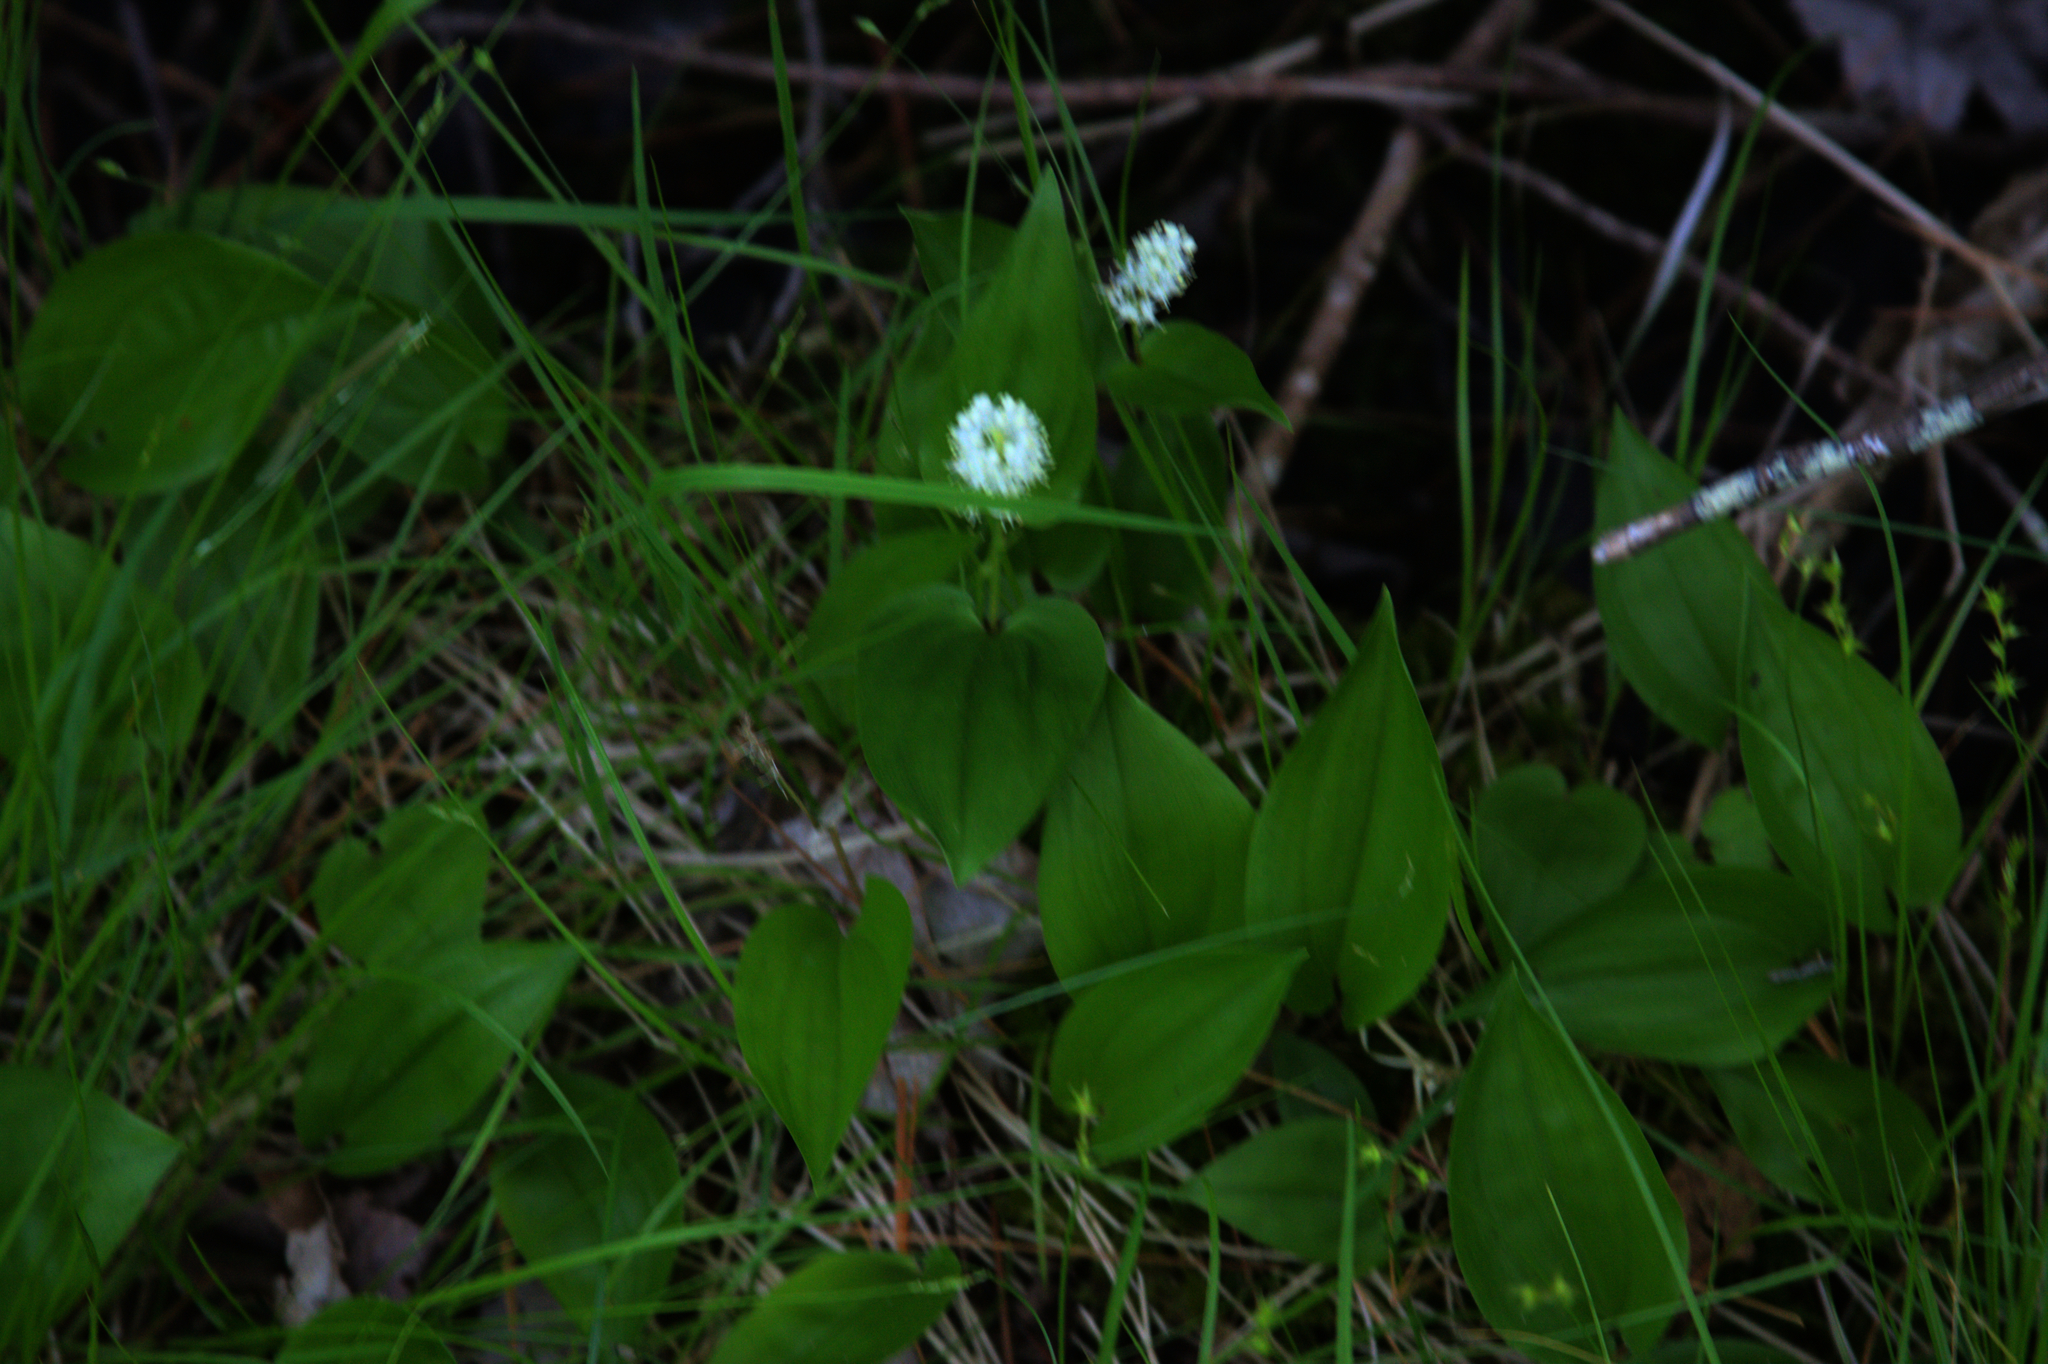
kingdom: Plantae
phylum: Tracheophyta
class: Liliopsida
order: Asparagales
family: Asparagaceae
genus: Maianthemum
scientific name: Maianthemum canadense
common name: False lily-of-the-valley
